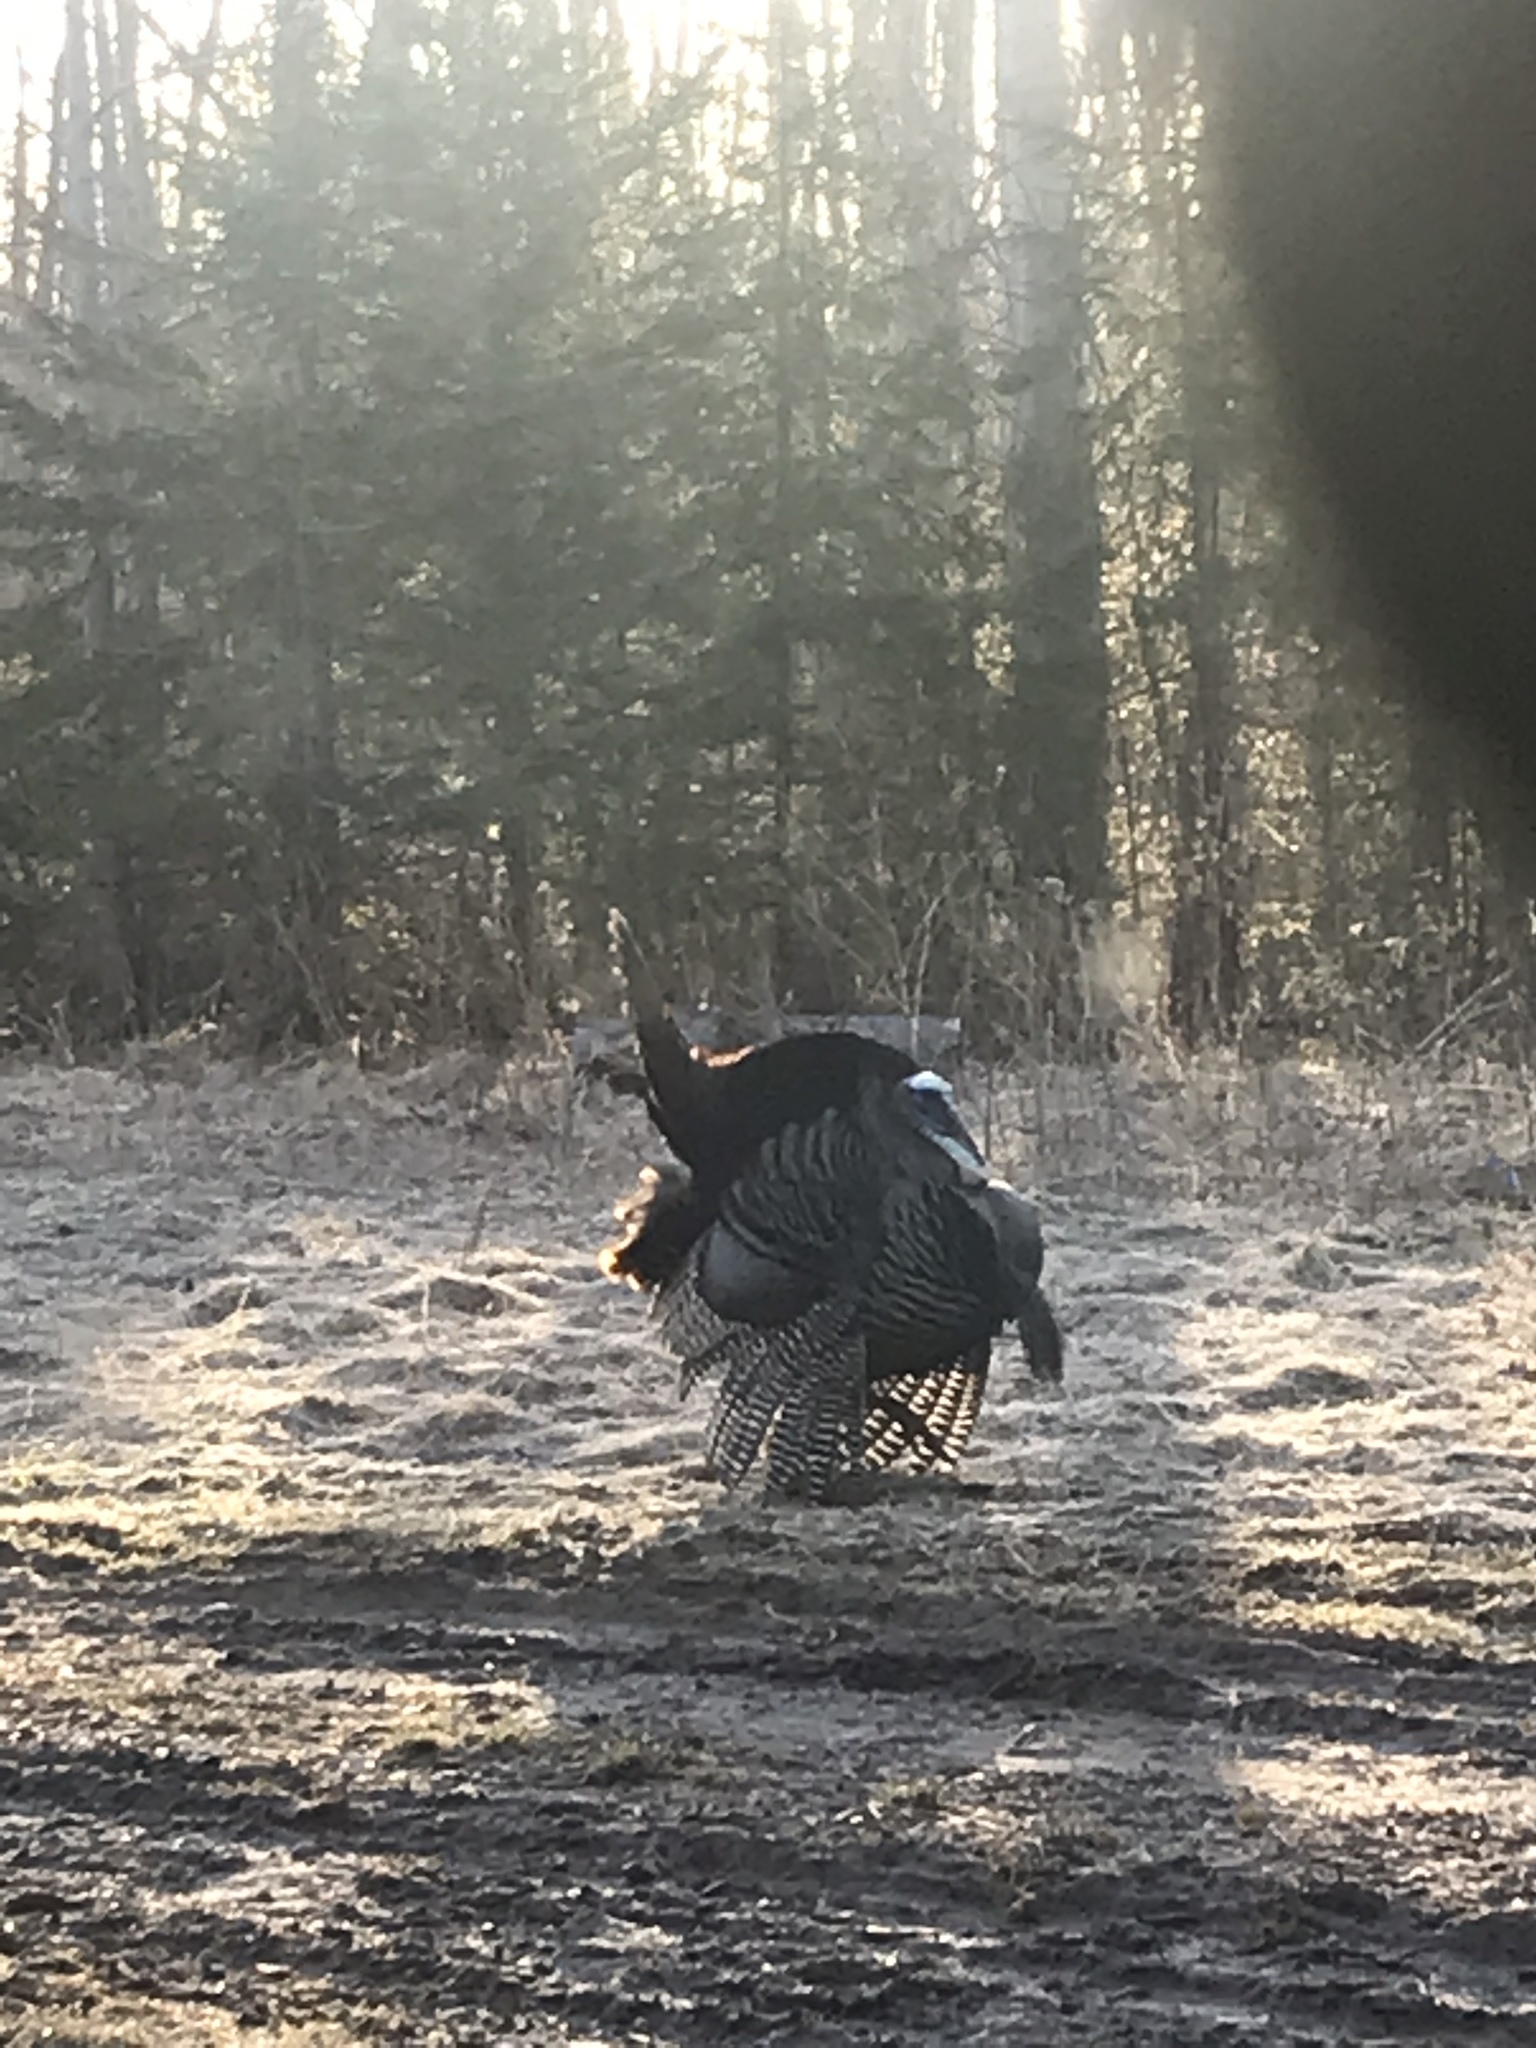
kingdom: Animalia
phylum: Chordata
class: Aves
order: Galliformes
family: Phasianidae
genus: Meleagris
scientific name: Meleagris gallopavo
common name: Wild turkey
